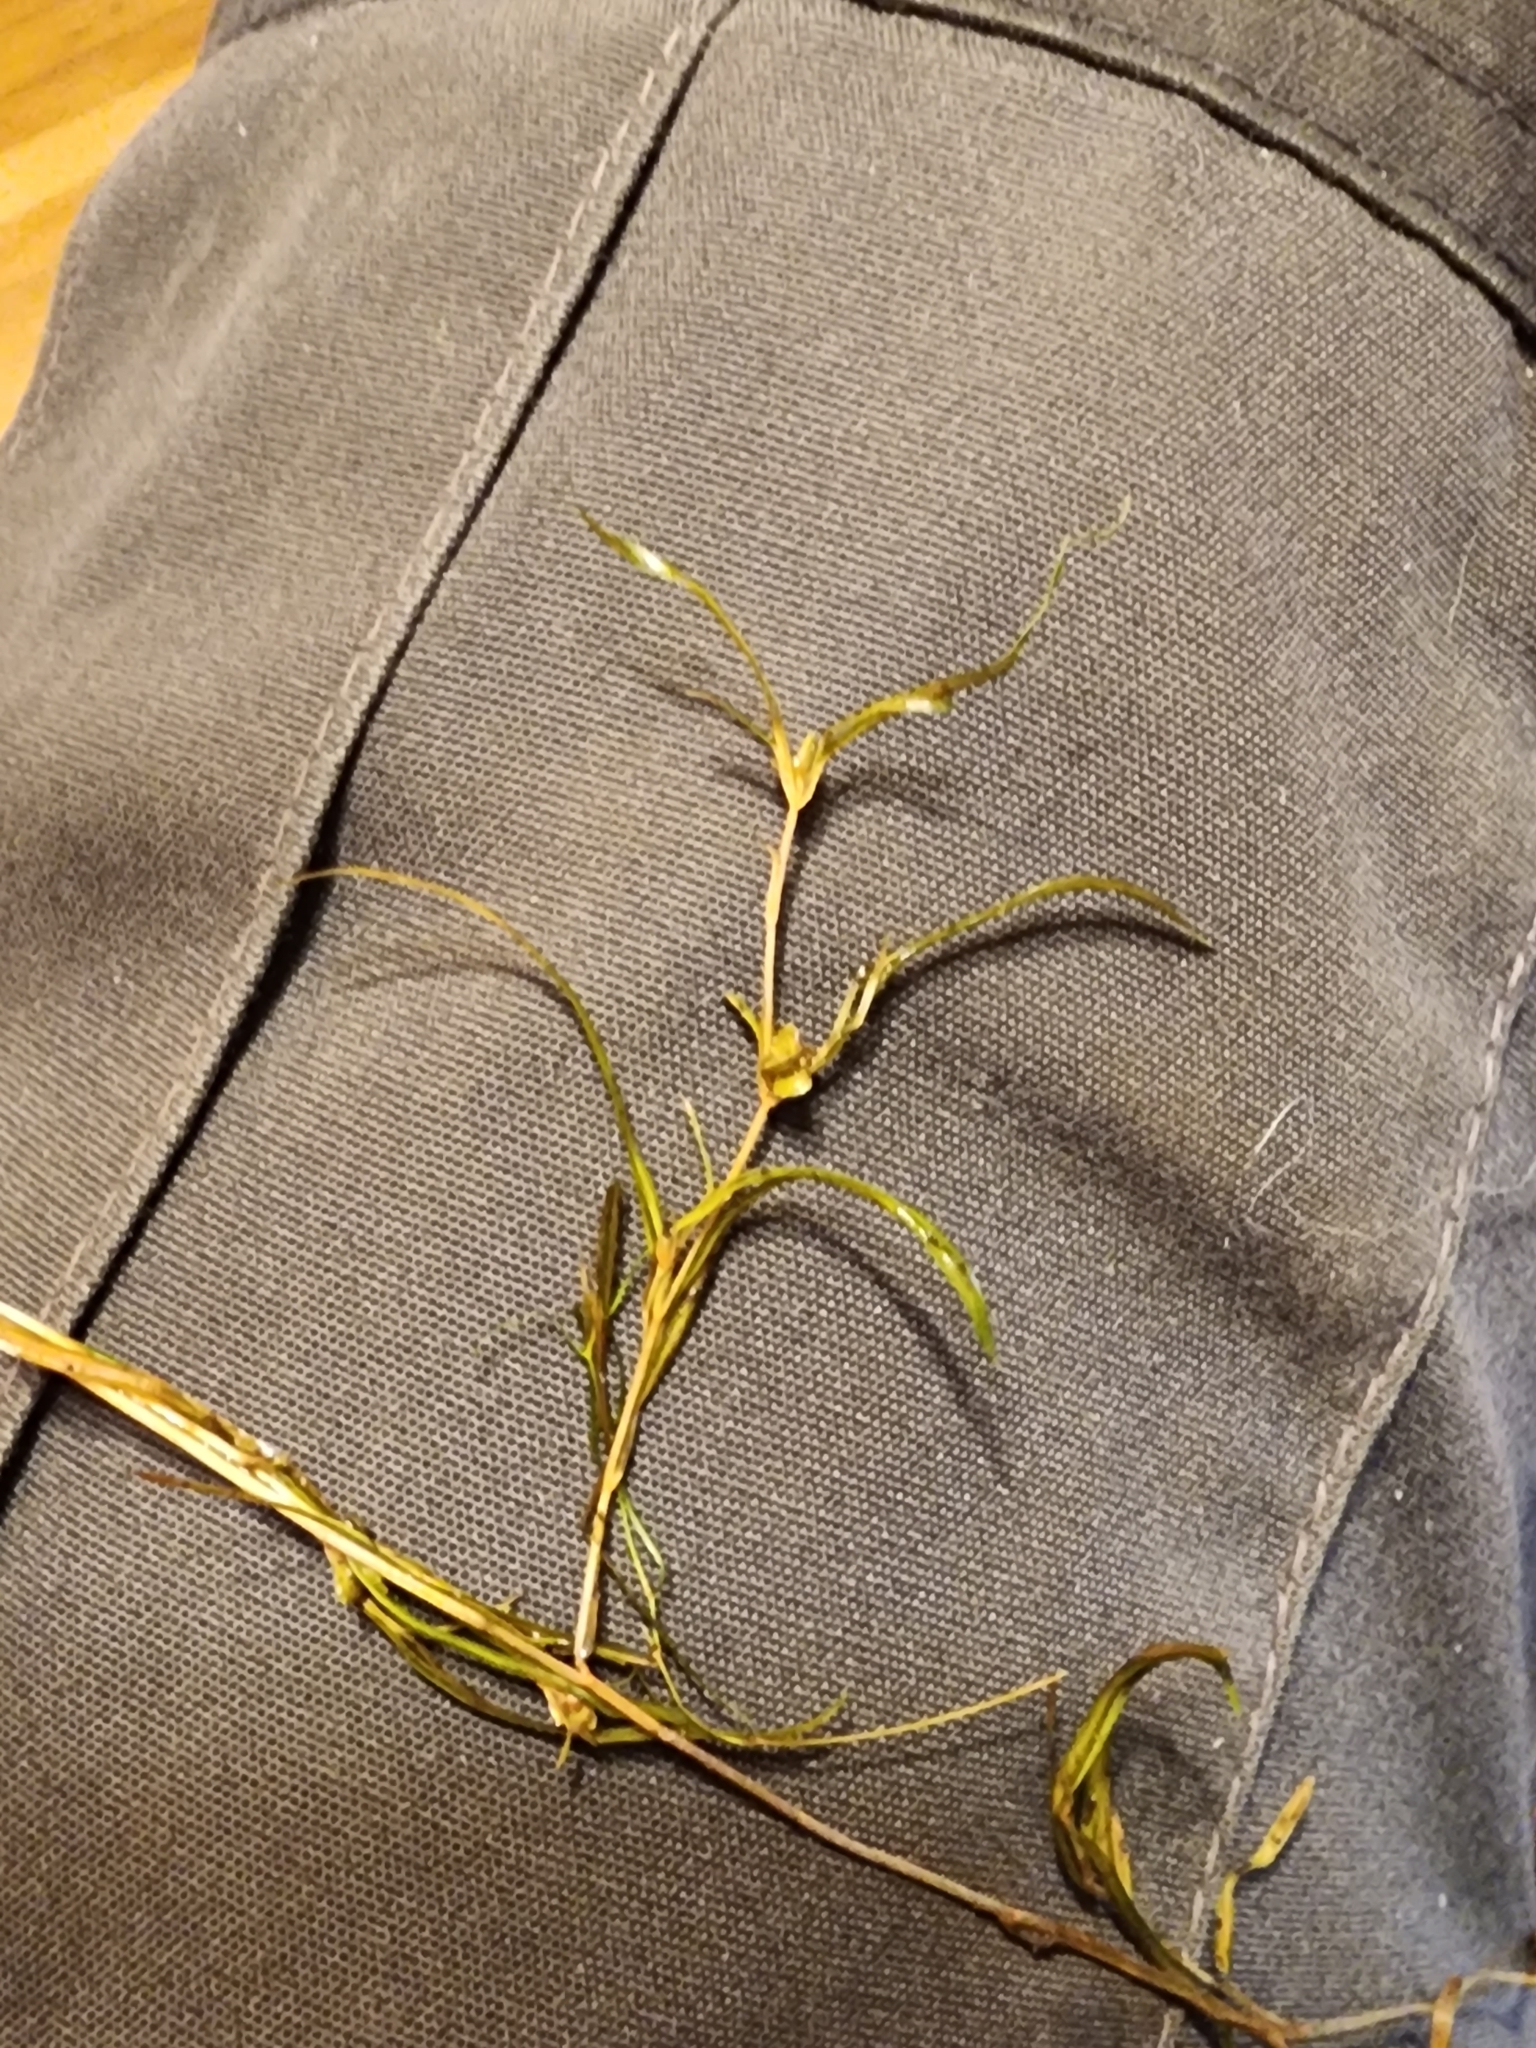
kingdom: Plantae
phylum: Tracheophyta
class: Liliopsida
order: Alismatales
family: Potamogetonaceae
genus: Potamogeton
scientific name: Potamogeton spirillus
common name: Northern snail-seed pondweed
